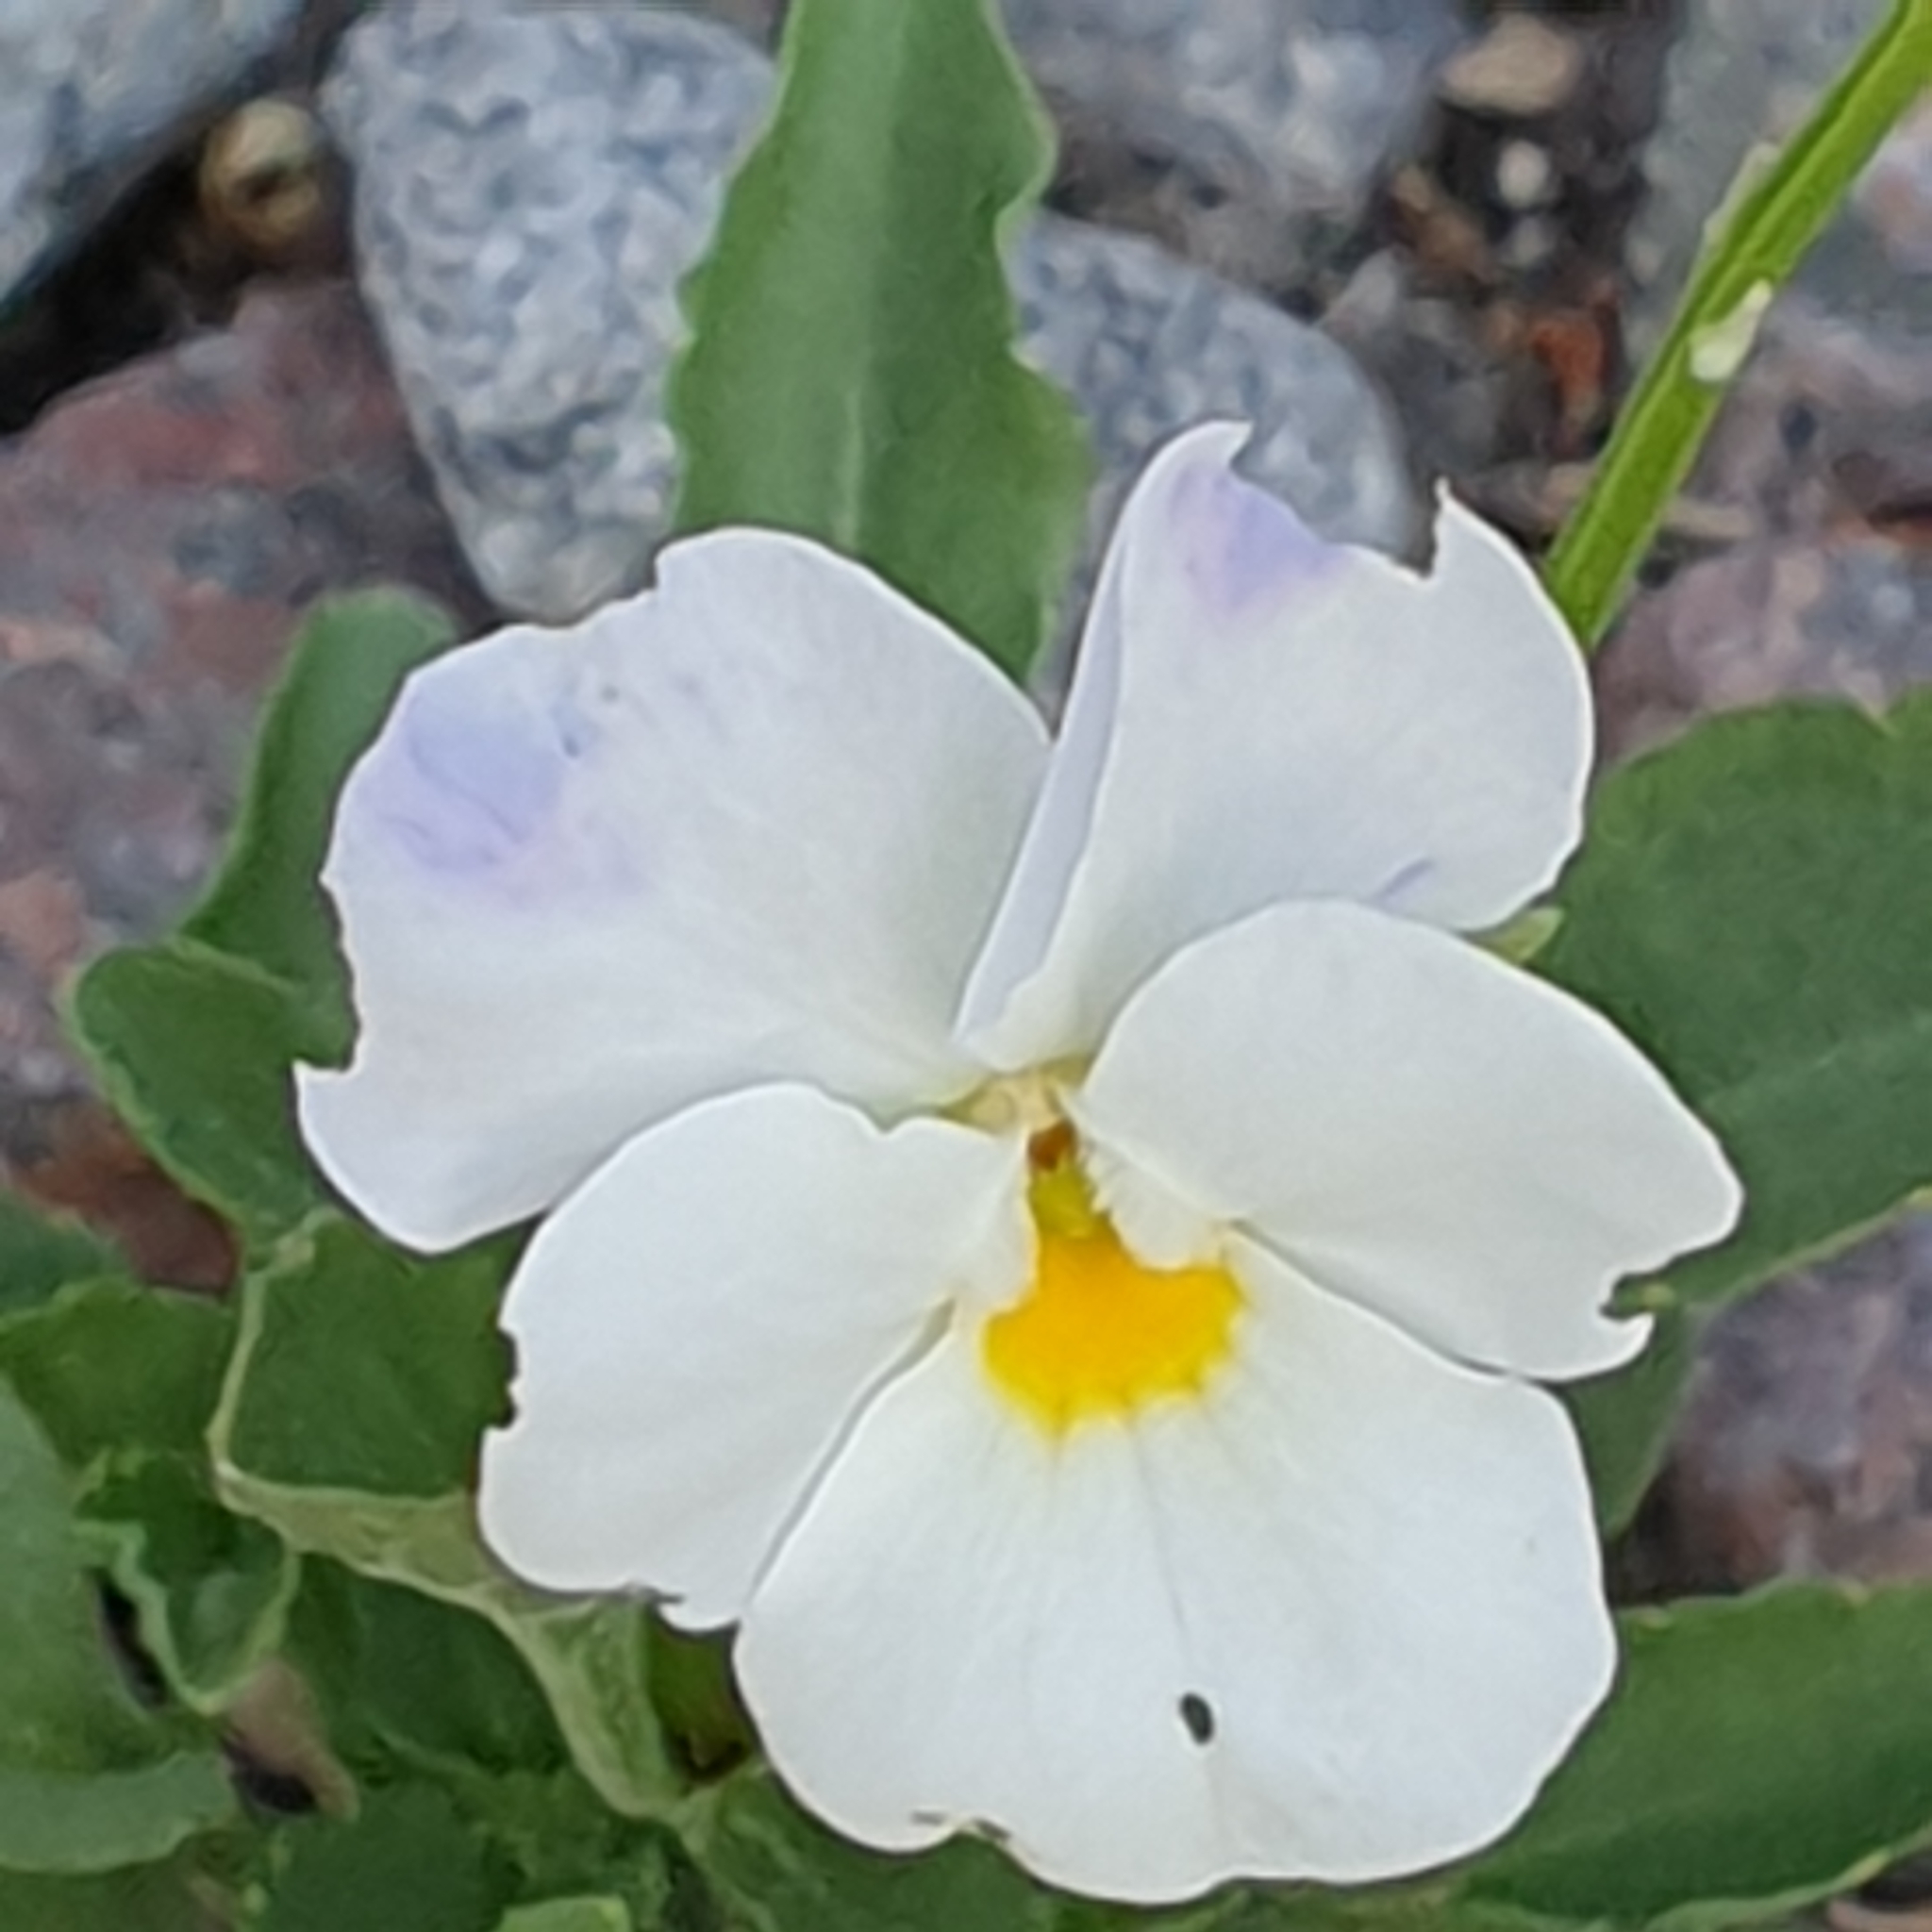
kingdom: Plantae
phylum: Tracheophyta
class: Magnoliopsida
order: Malpighiales
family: Violaceae
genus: Viola
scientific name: Viola williamsii
